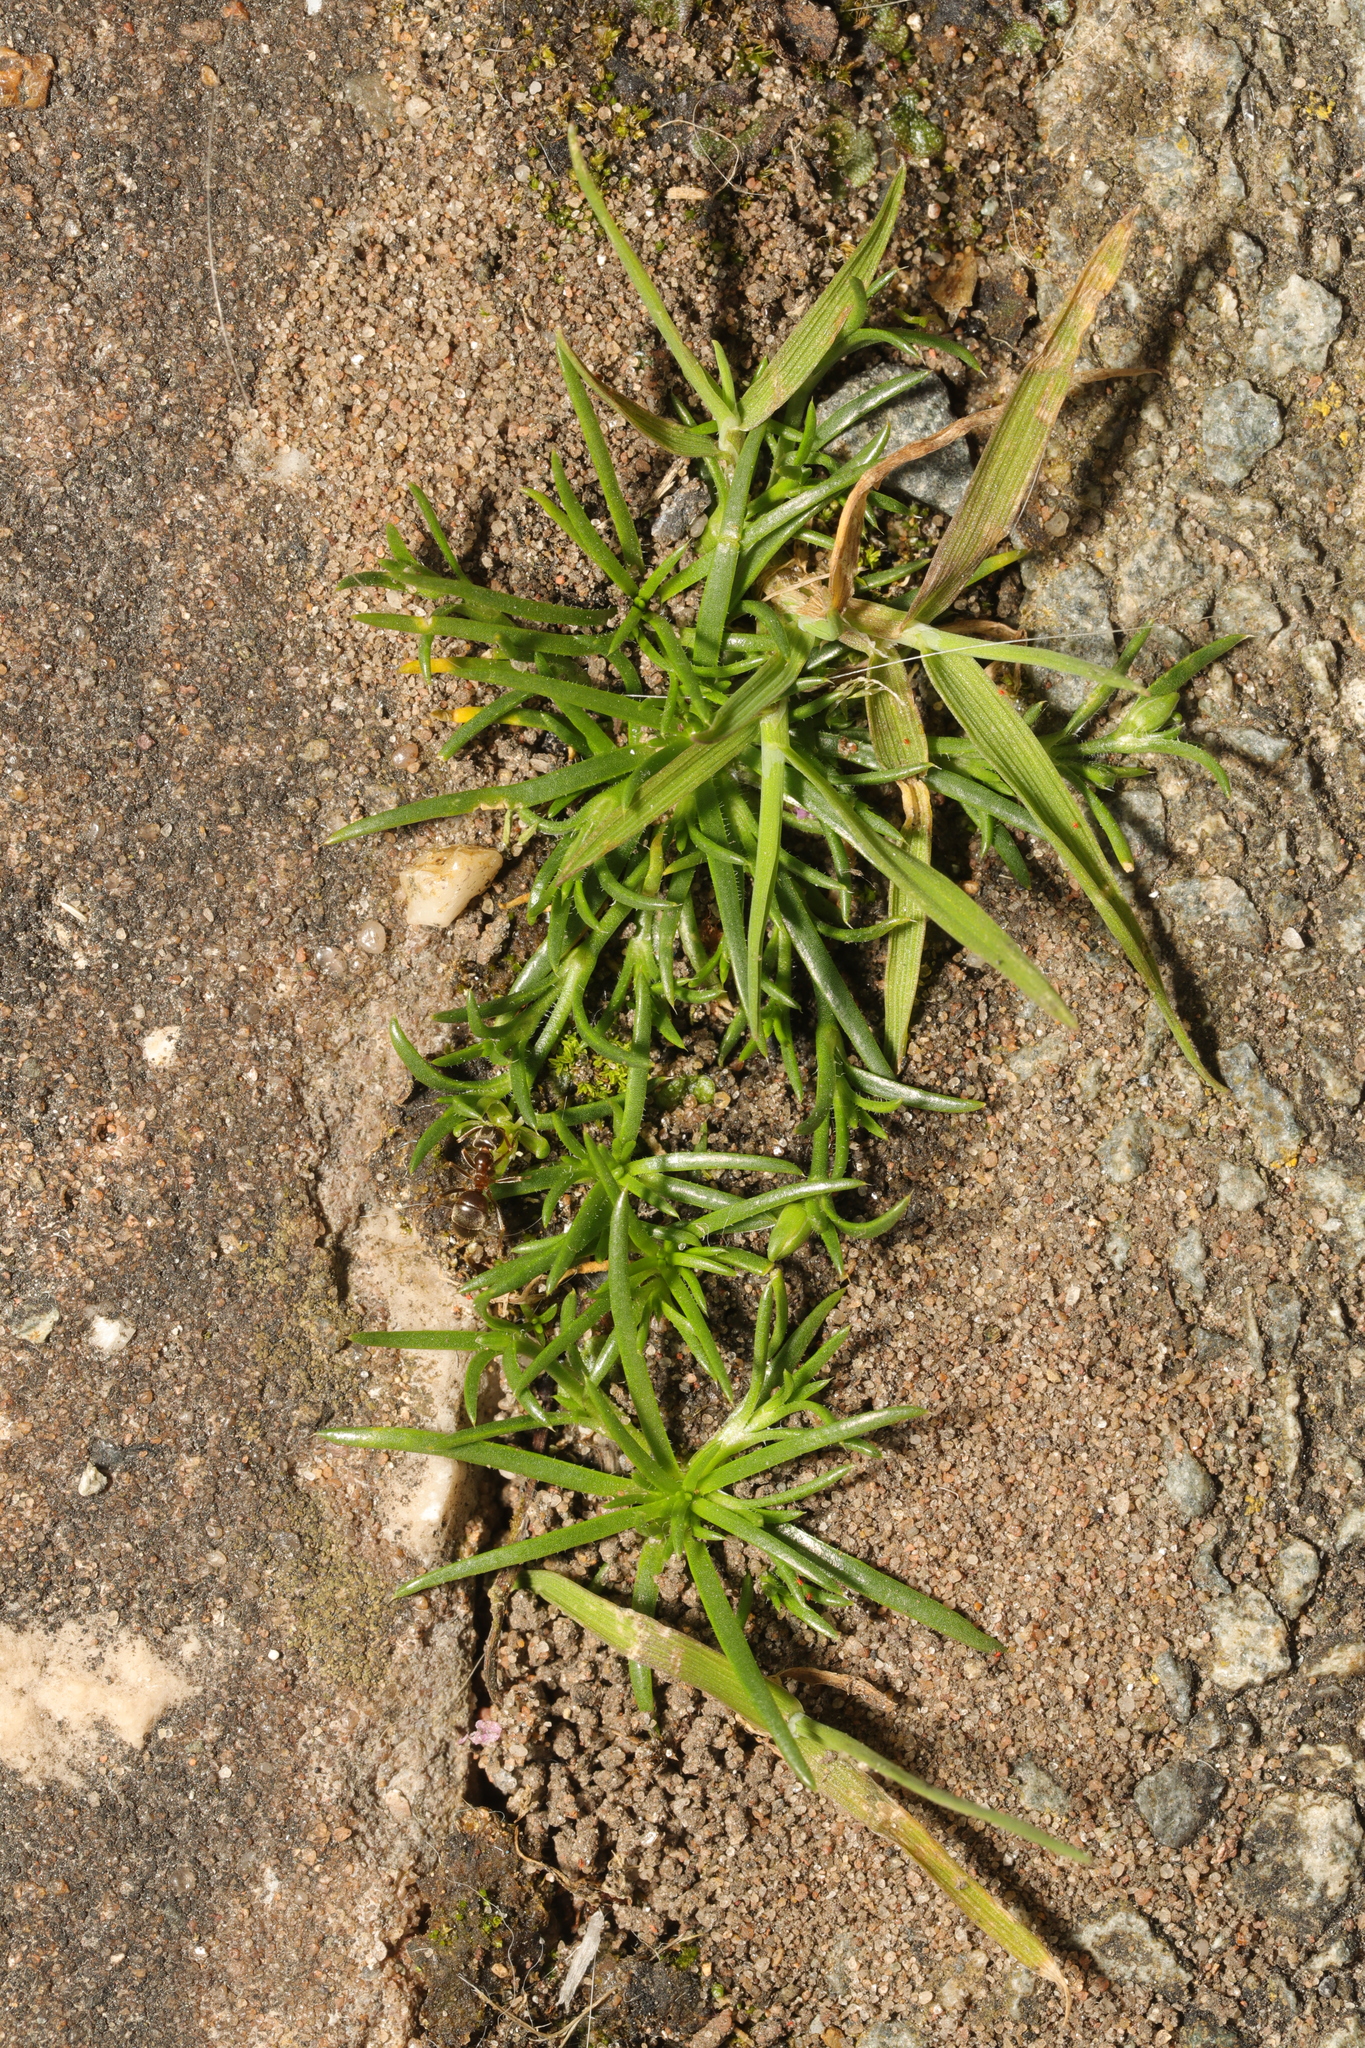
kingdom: Plantae
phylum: Tracheophyta
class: Magnoliopsida
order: Caryophyllales
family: Caryophyllaceae
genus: Sagina
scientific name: Sagina procumbens
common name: Procumbent pearlwort
